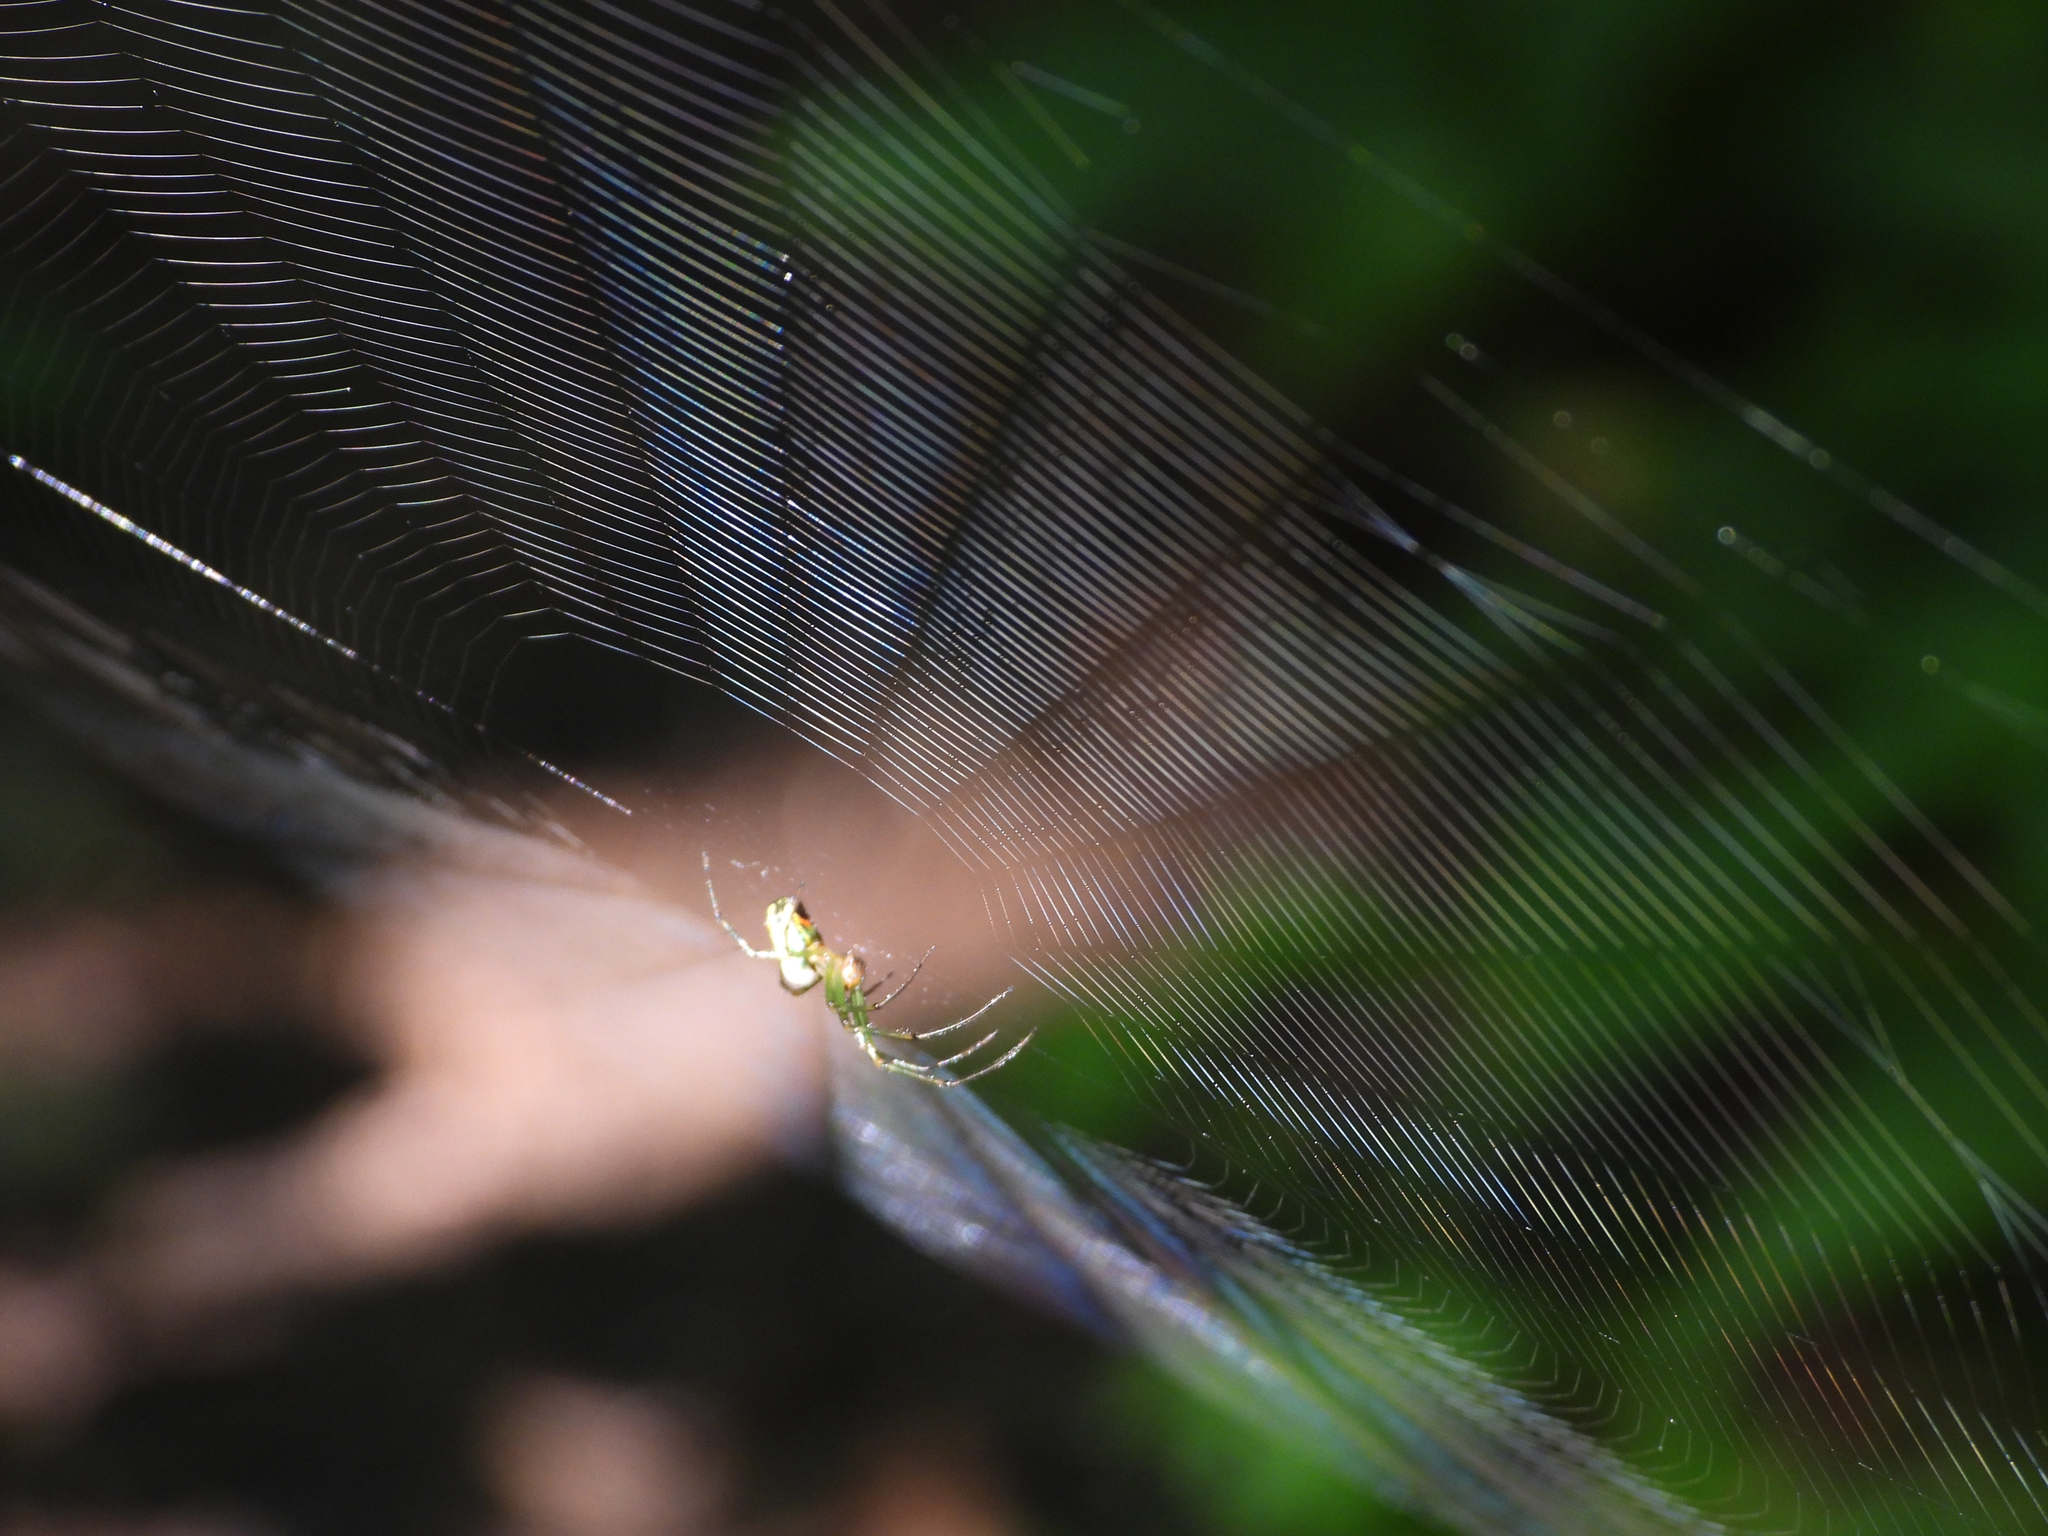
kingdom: Animalia
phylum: Arthropoda
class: Arachnida
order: Araneae
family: Tetragnathidae
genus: Leucauge
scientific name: Leucauge venusta
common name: Longjawed orb weavers
